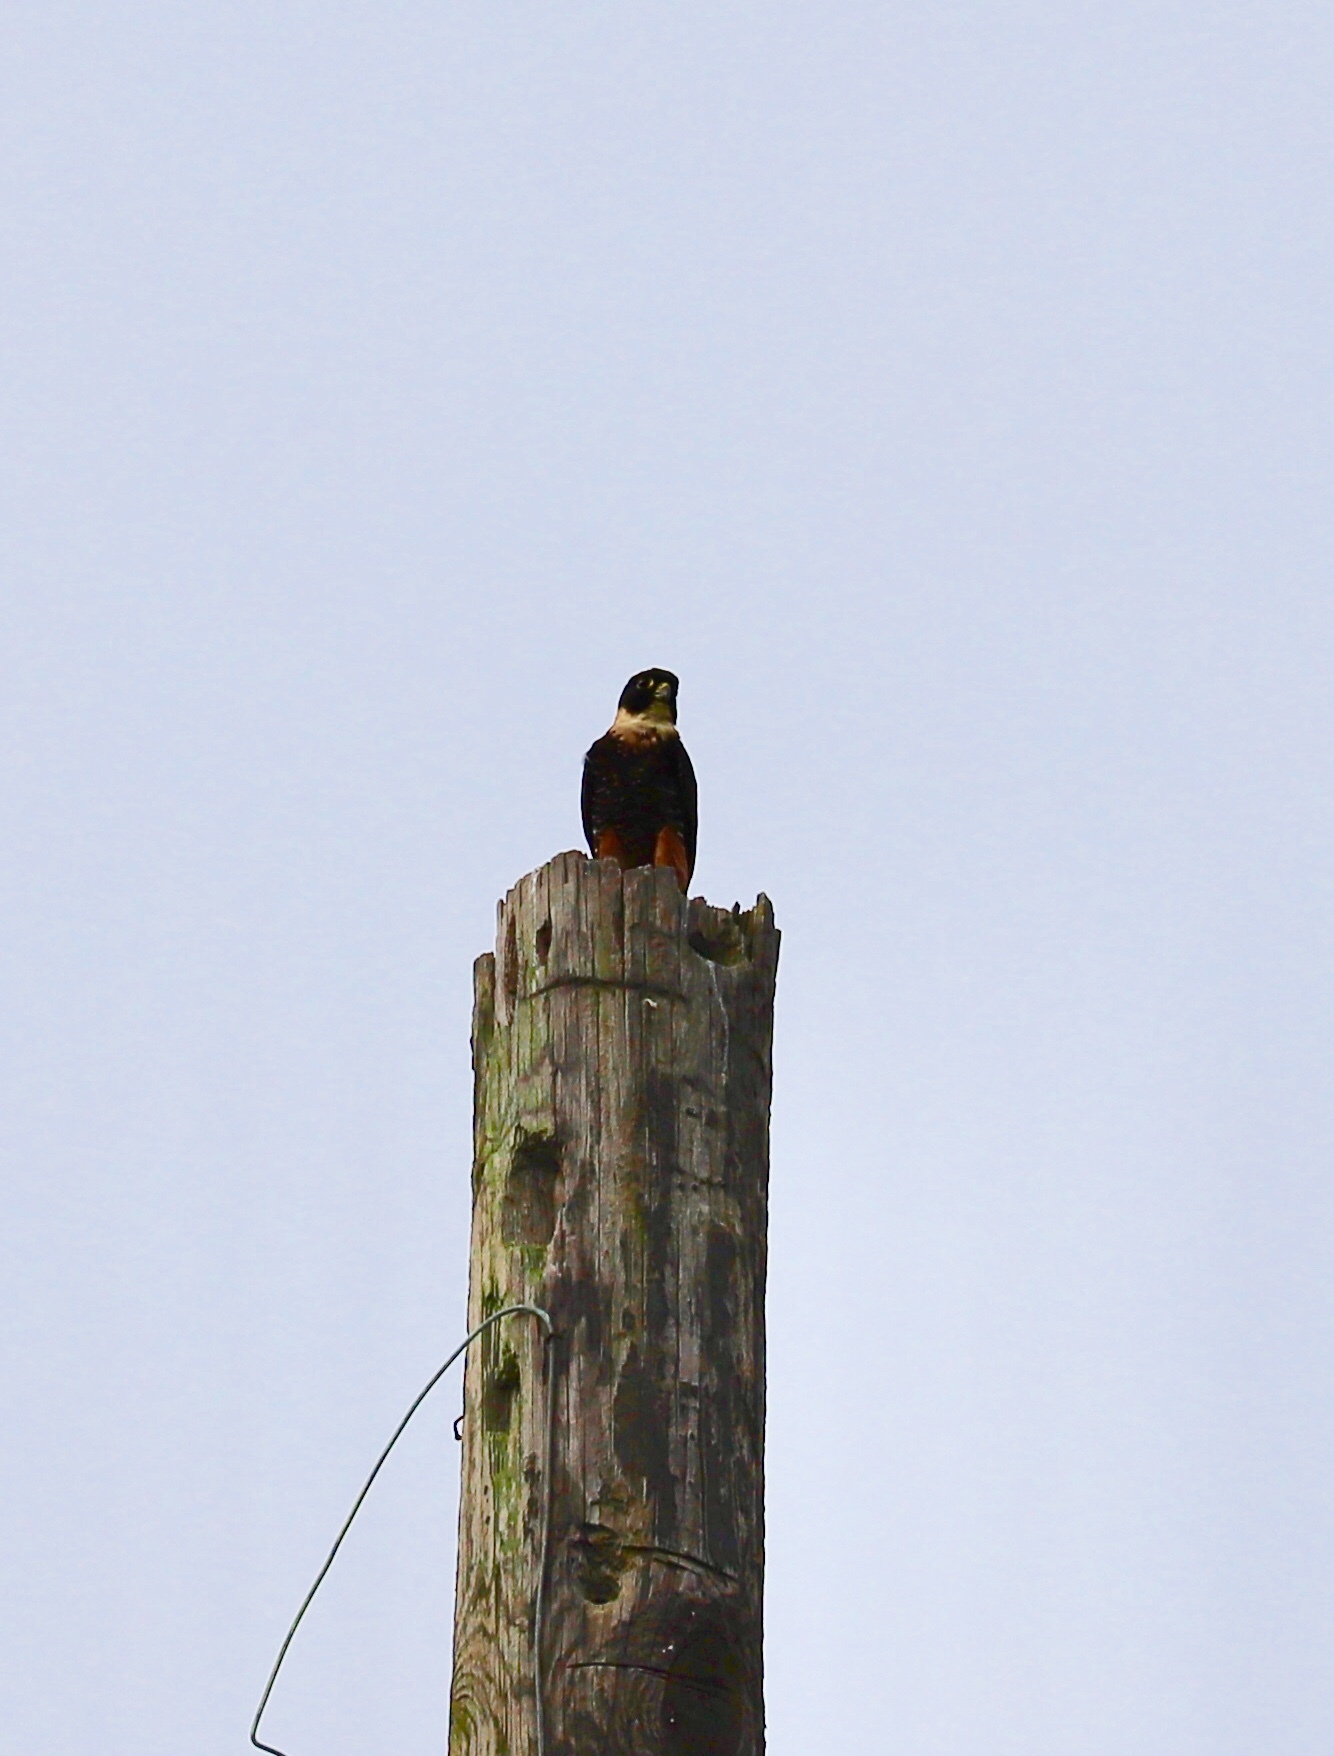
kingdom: Animalia
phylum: Chordata
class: Aves
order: Falconiformes
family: Falconidae
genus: Falco
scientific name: Falco rufigularis
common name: Bat falcon
